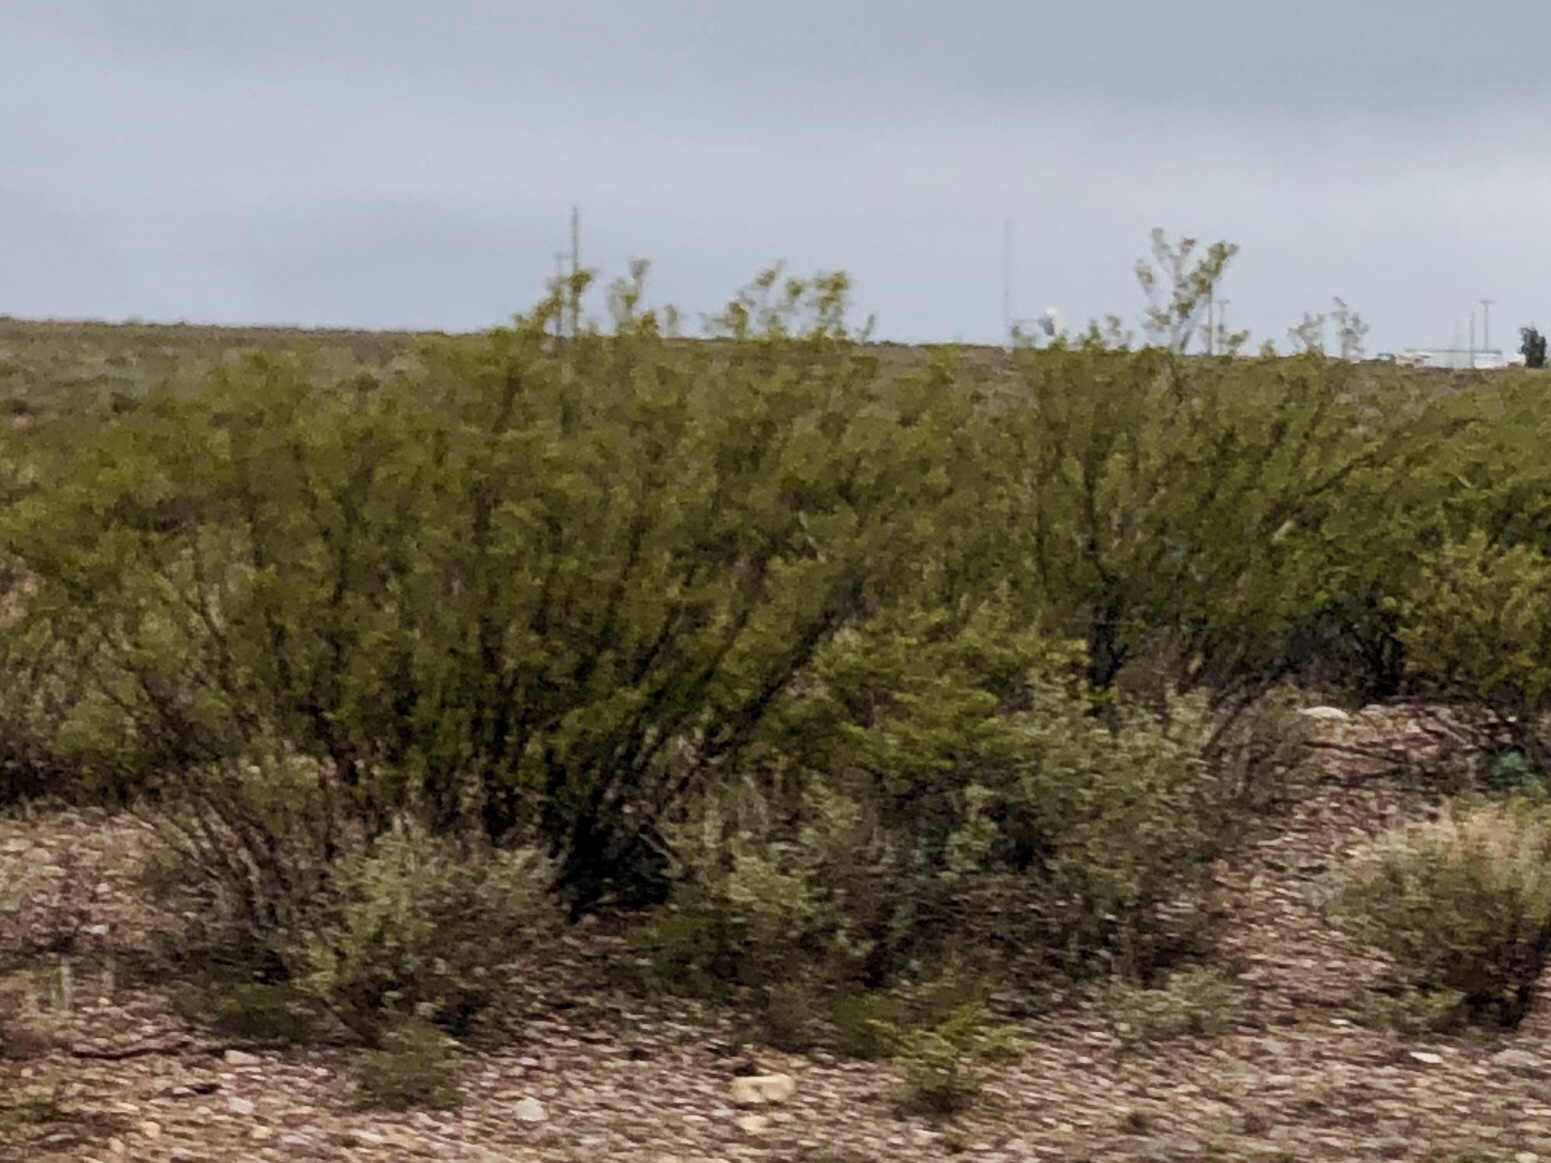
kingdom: Plantae
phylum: Tracheophyta
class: Magnoliopsida
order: Zygophyllales
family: Zygophyllaceae
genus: Larrea
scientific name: Larrea tridentata
